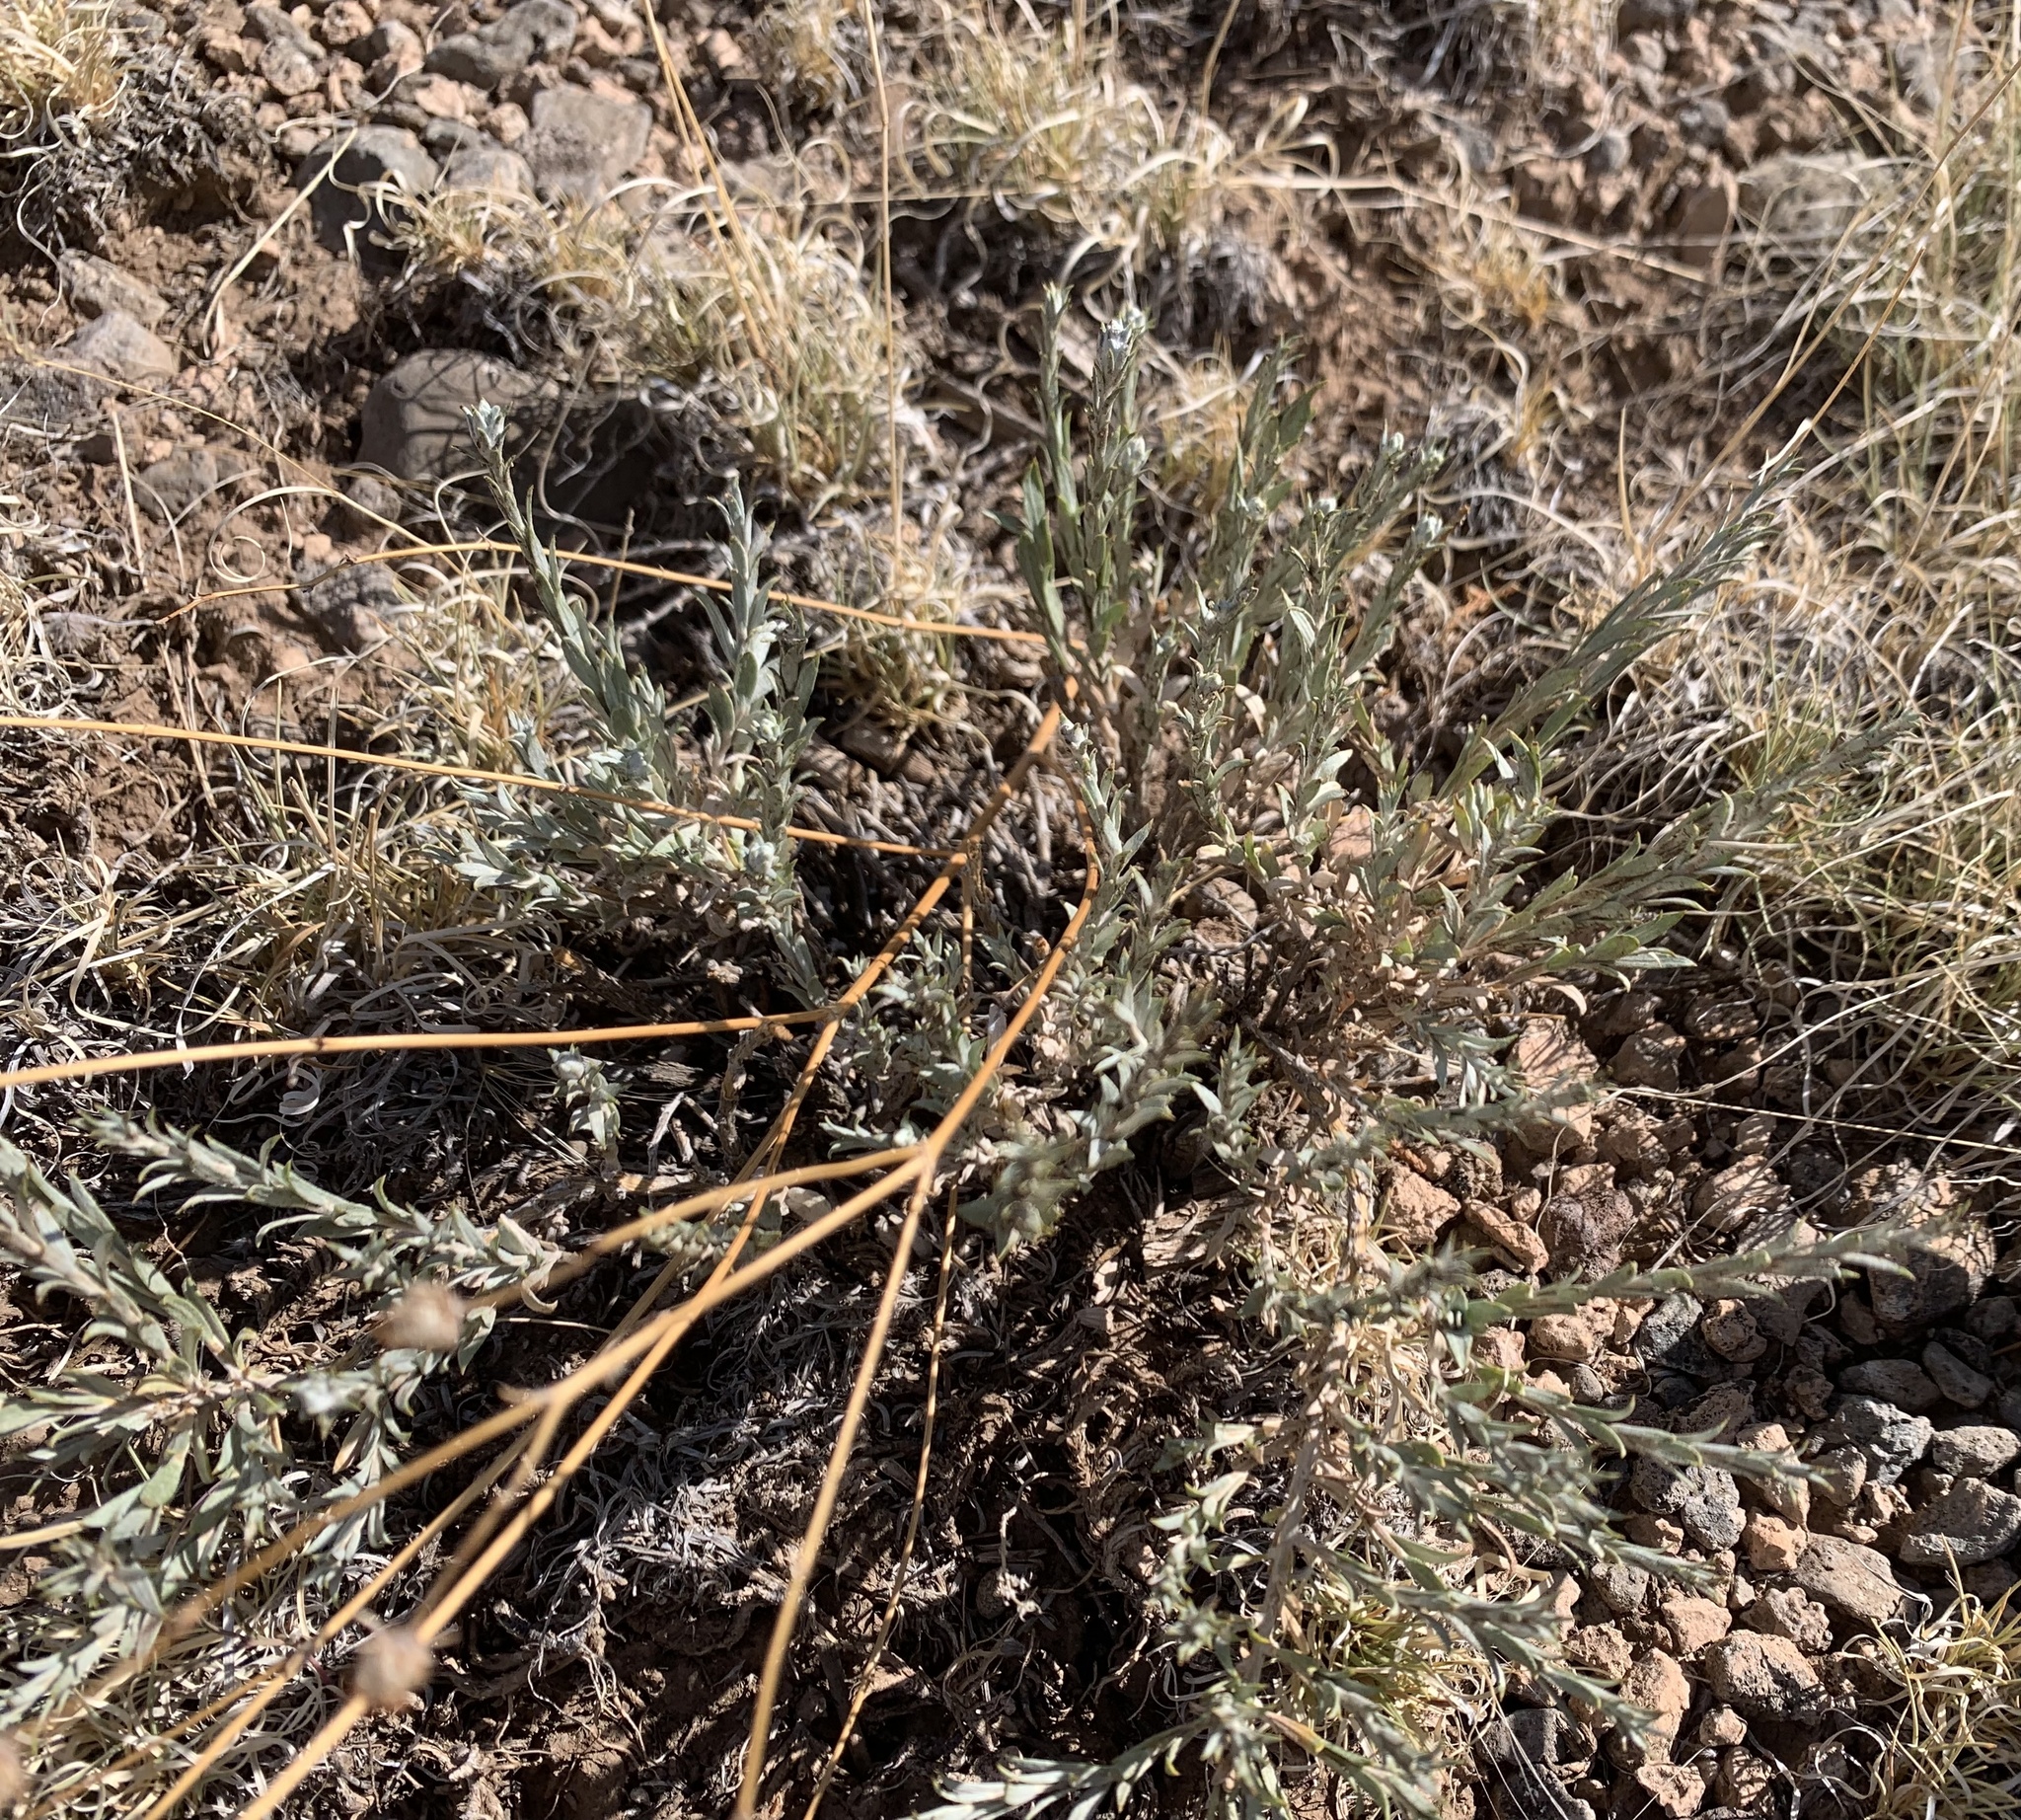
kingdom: Plantae
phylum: Tracheophyta
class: Magnoliopsida
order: Asterales
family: Asteraceae
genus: Tetradymia
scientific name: Tetradymia canescens
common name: Spineless horsebrush
